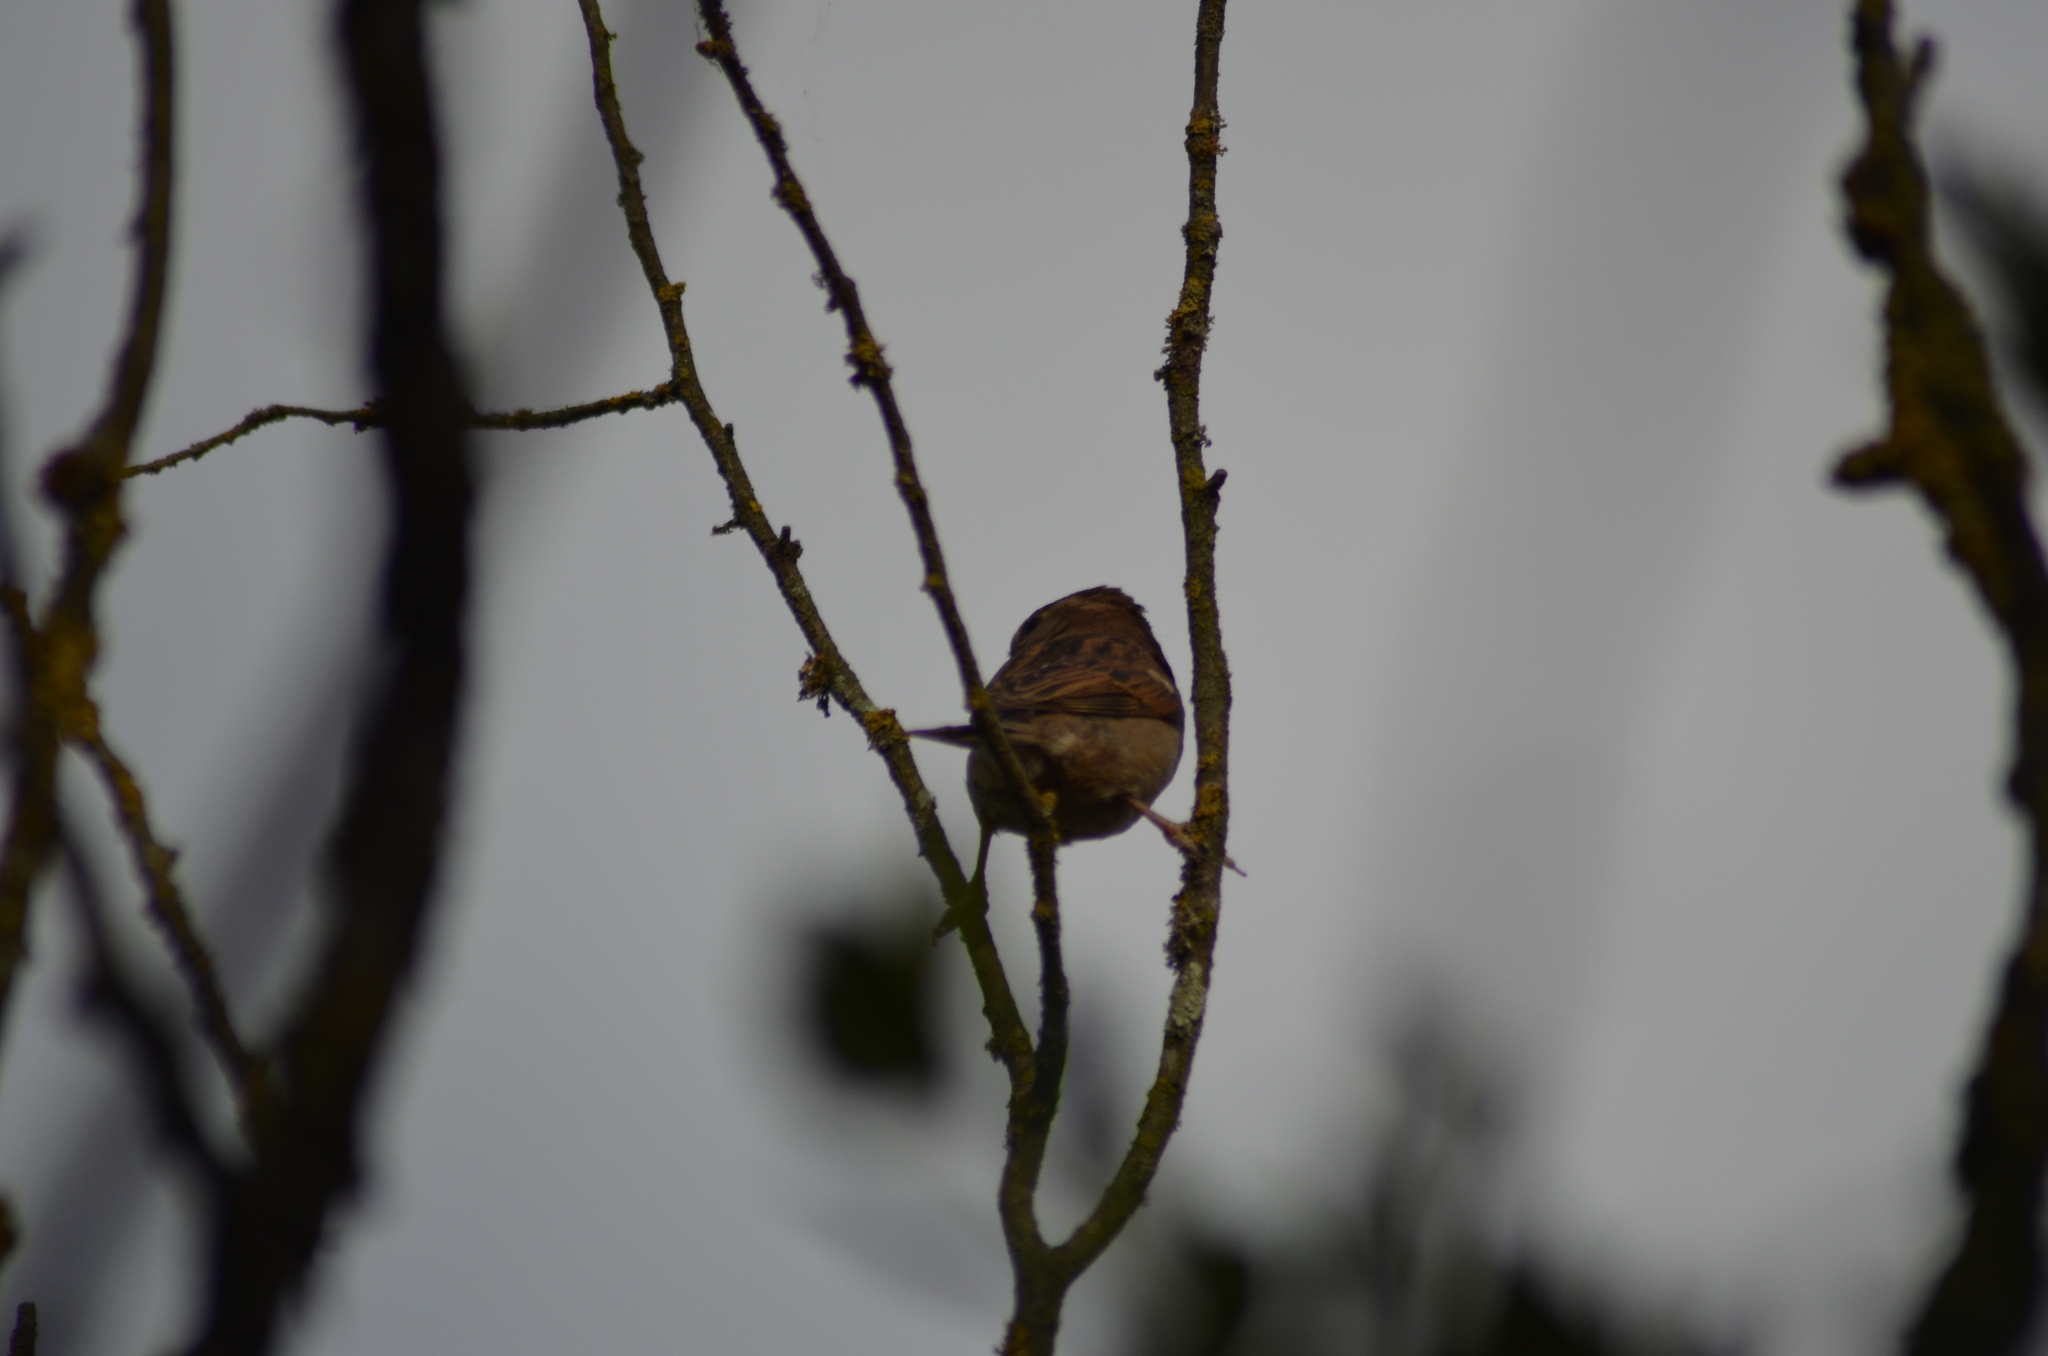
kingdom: Animalia
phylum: Chordata
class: Aves
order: Passeriformes
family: Passeridae
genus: Passer
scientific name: Passer domesticus
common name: House sparrow
